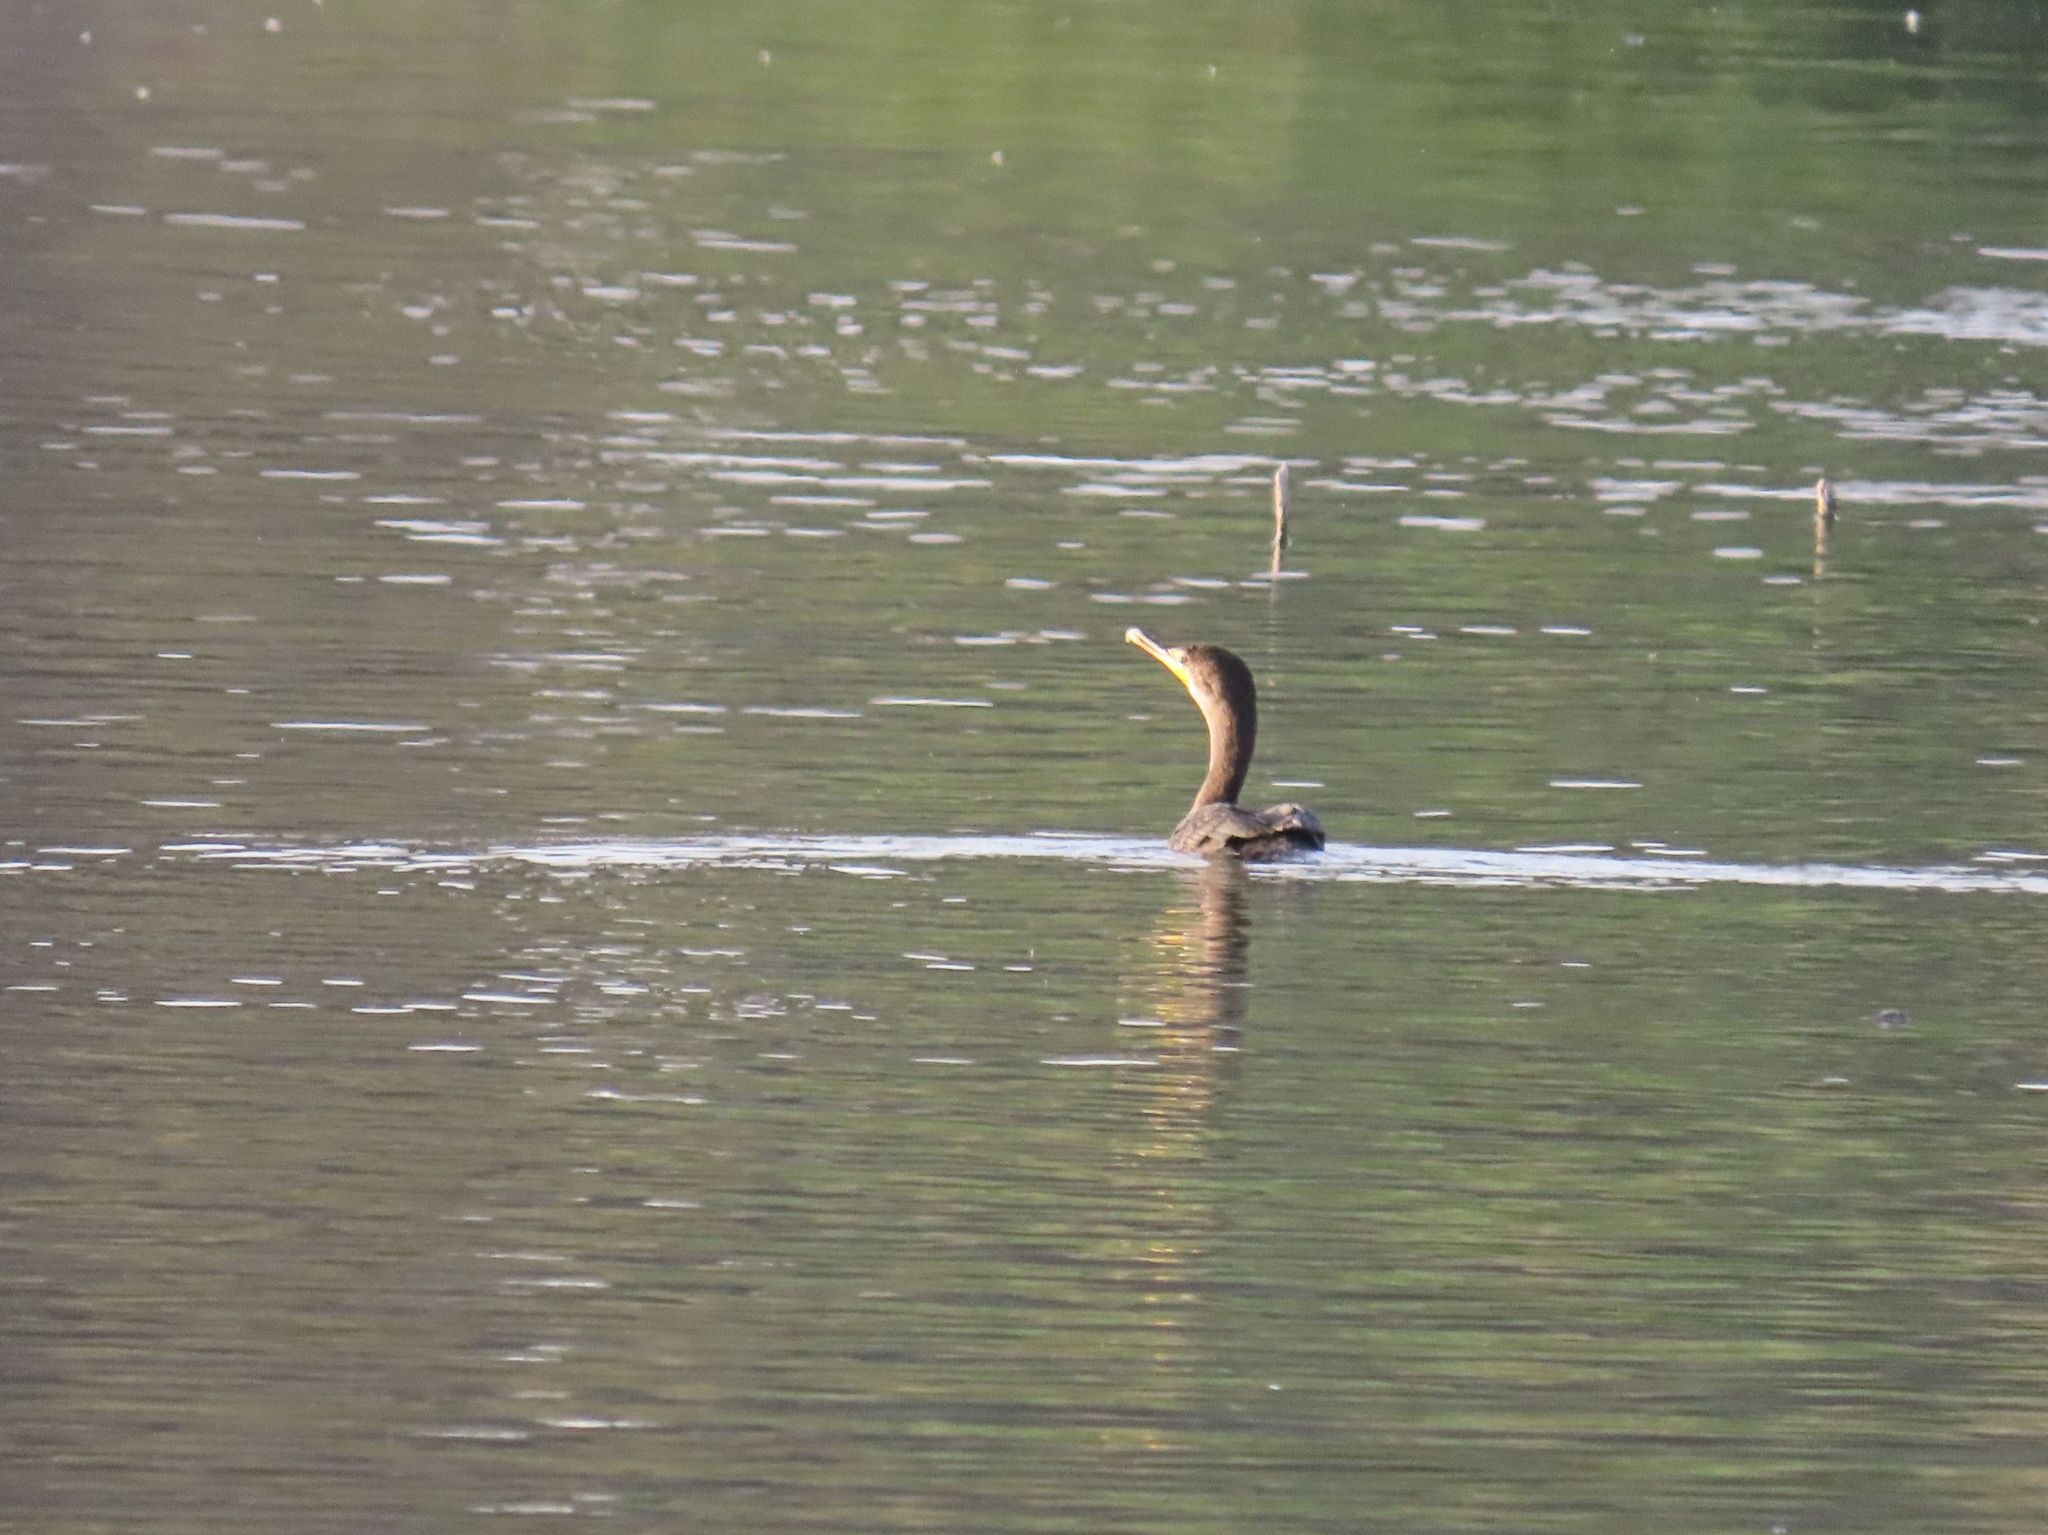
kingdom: Animalia
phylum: Chordata
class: Aves
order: Suliformes
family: Phalacrocoracidae
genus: Phalacrocorax
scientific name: Phalacrocorax auritus
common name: Double-crested cormorant
